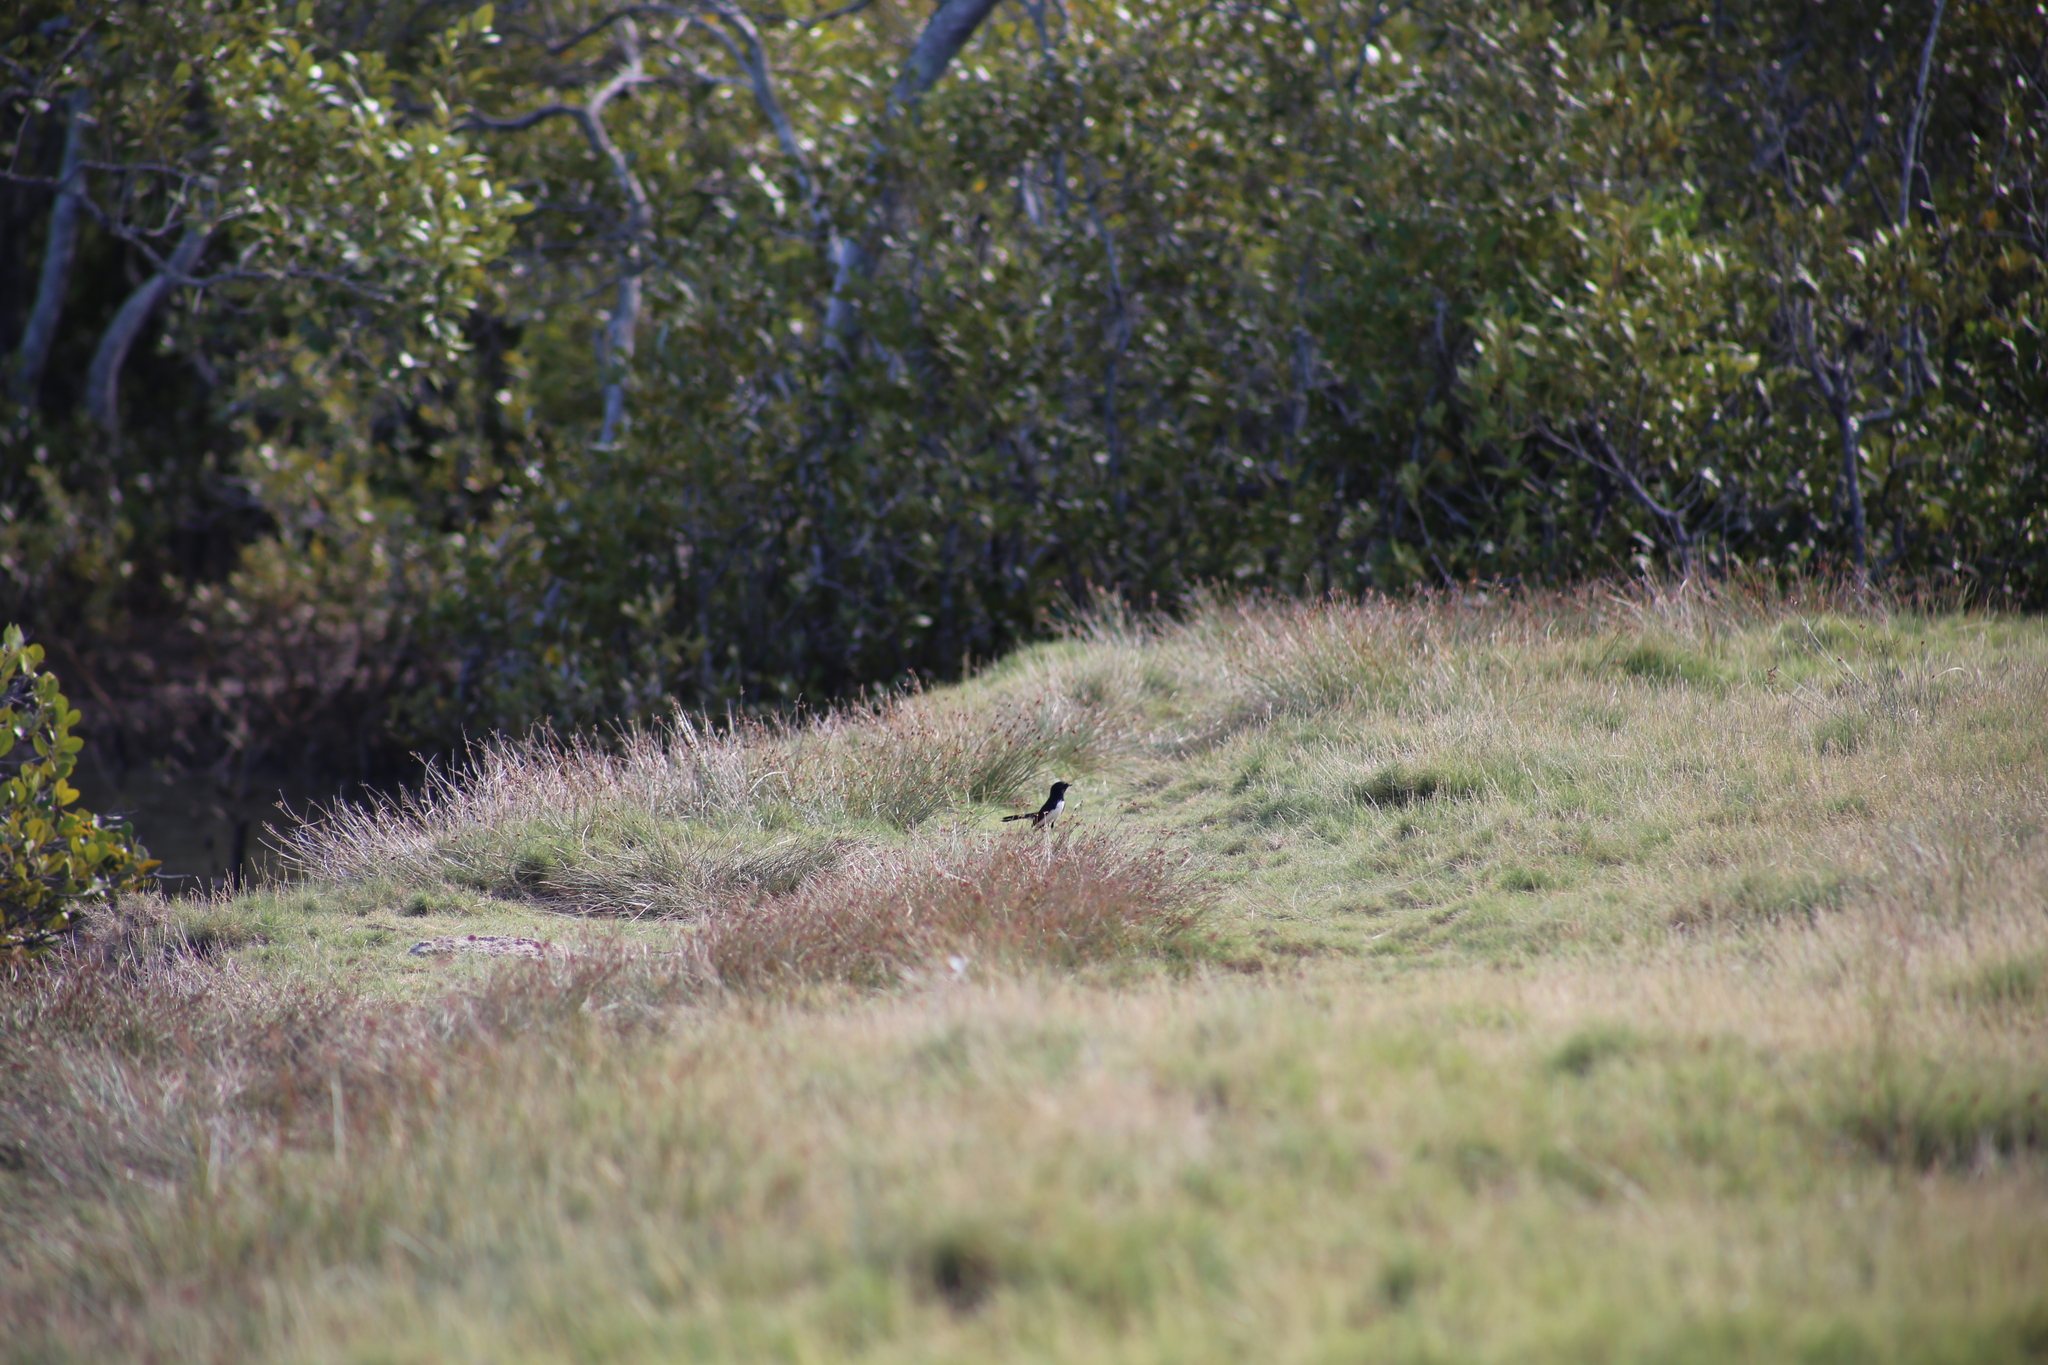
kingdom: Animalia
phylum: Chordata
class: Aves
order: Passeriformes
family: Rhipiduridae
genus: Rhipidura
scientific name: Rhipidura leucophrys
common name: Willie wagtail
